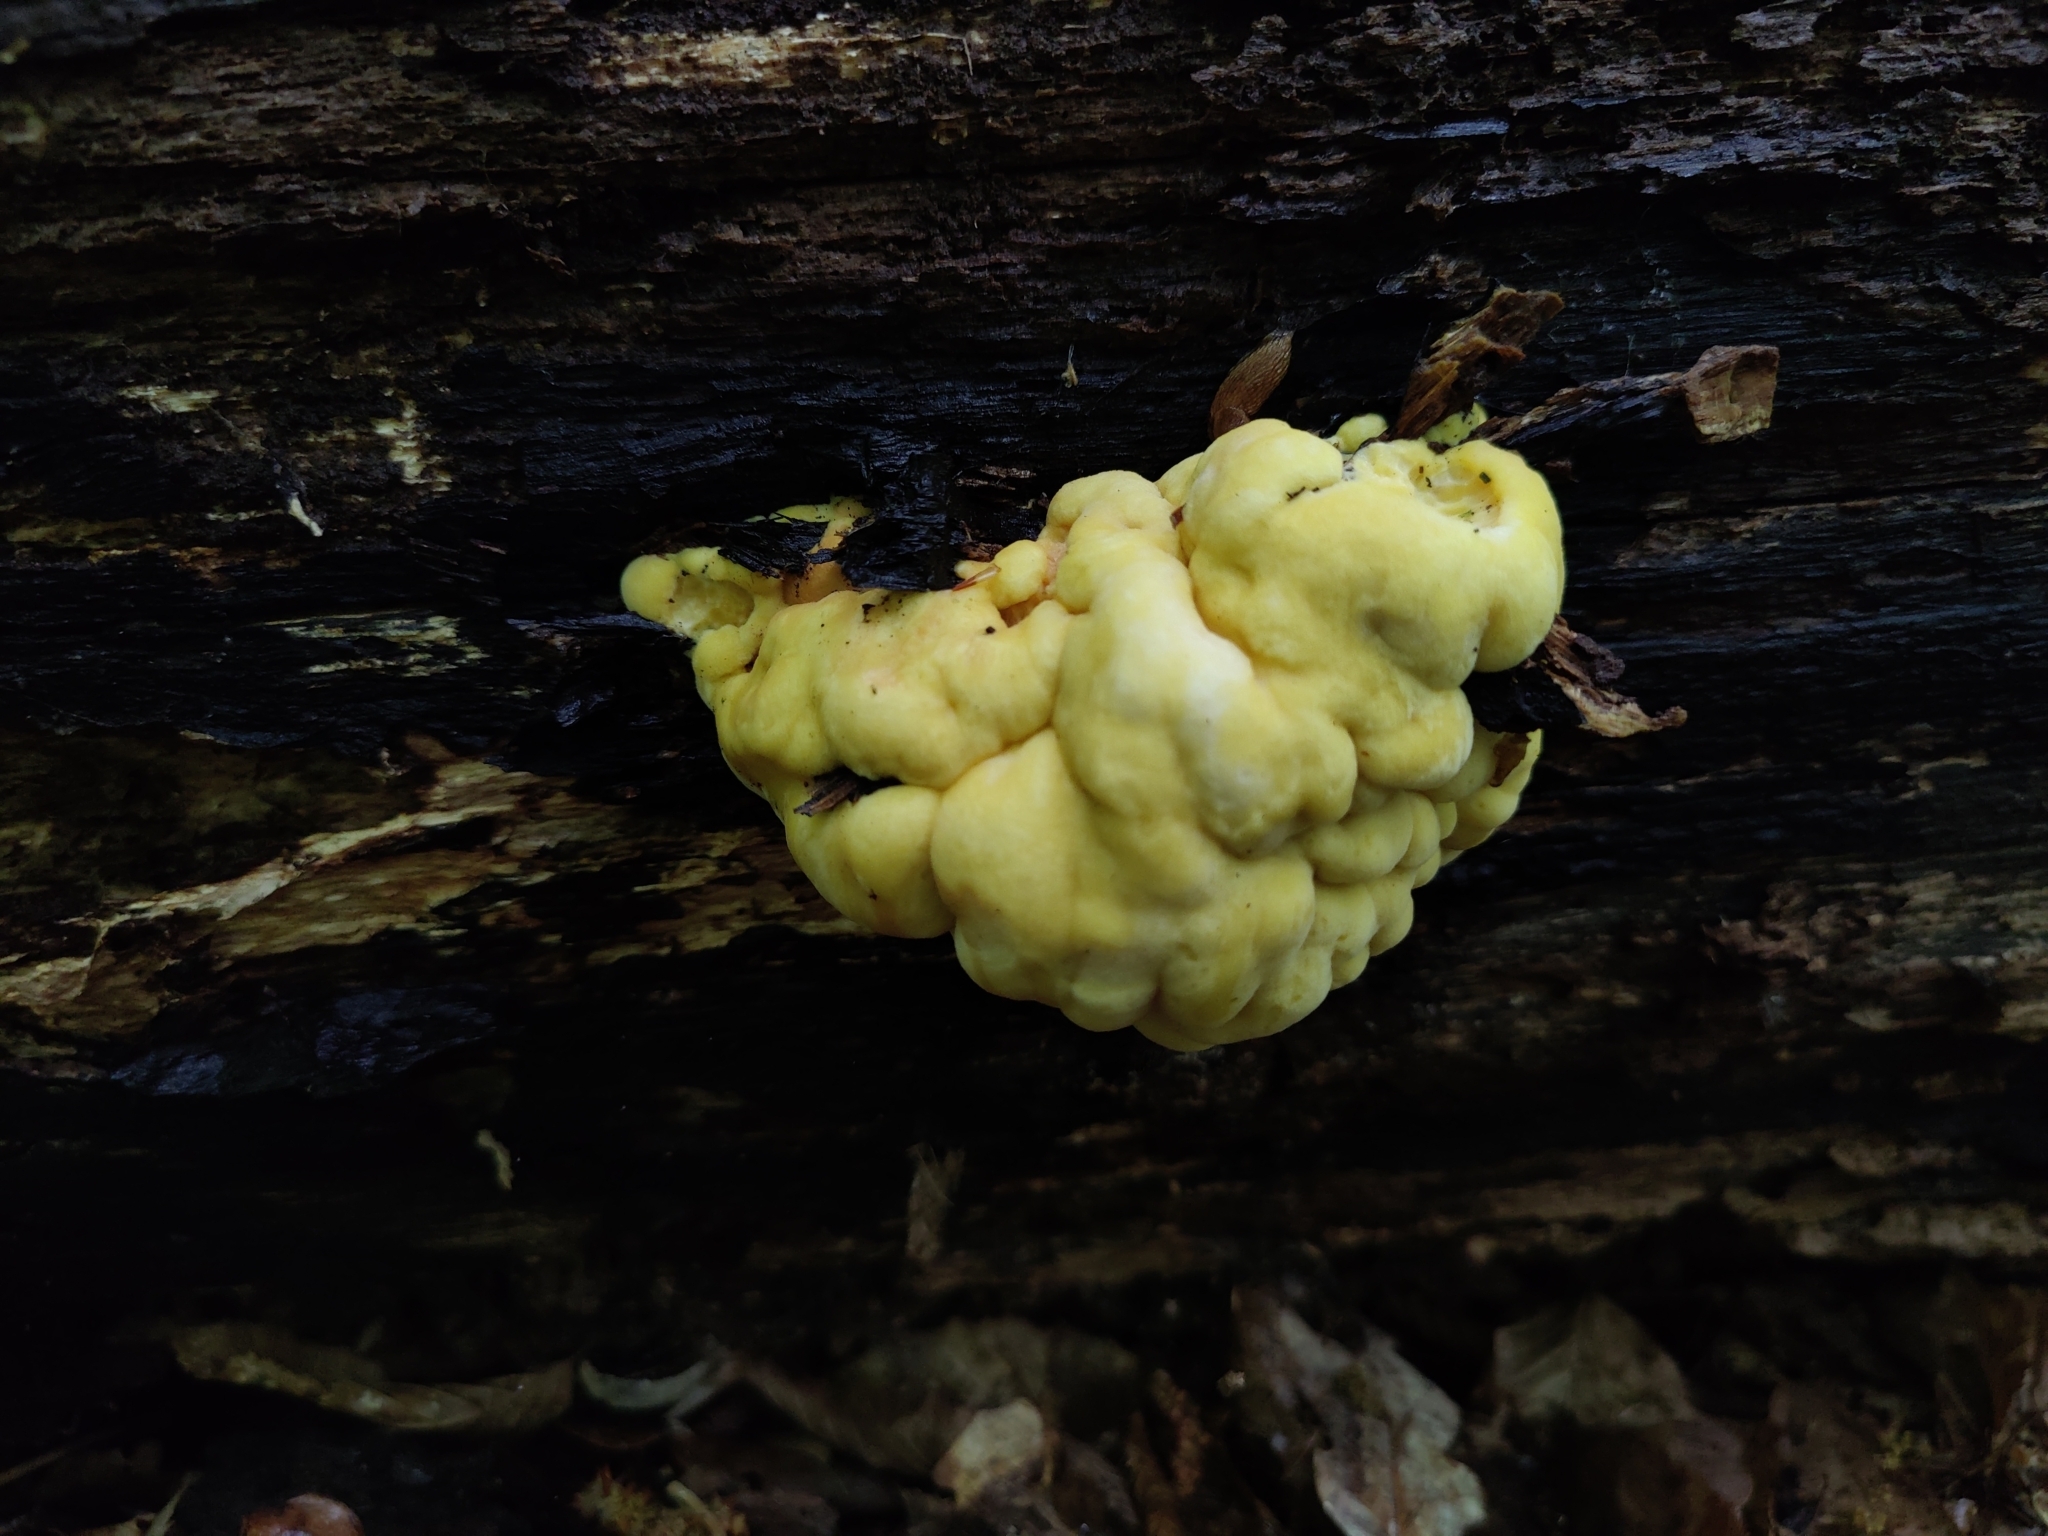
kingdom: Fungi
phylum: Basidiomycota
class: Agaricomycetes
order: Polyporales
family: Laetiporaceae
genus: Laetiporus
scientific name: Laetiporus sulphureus
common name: Chicken of the woods
